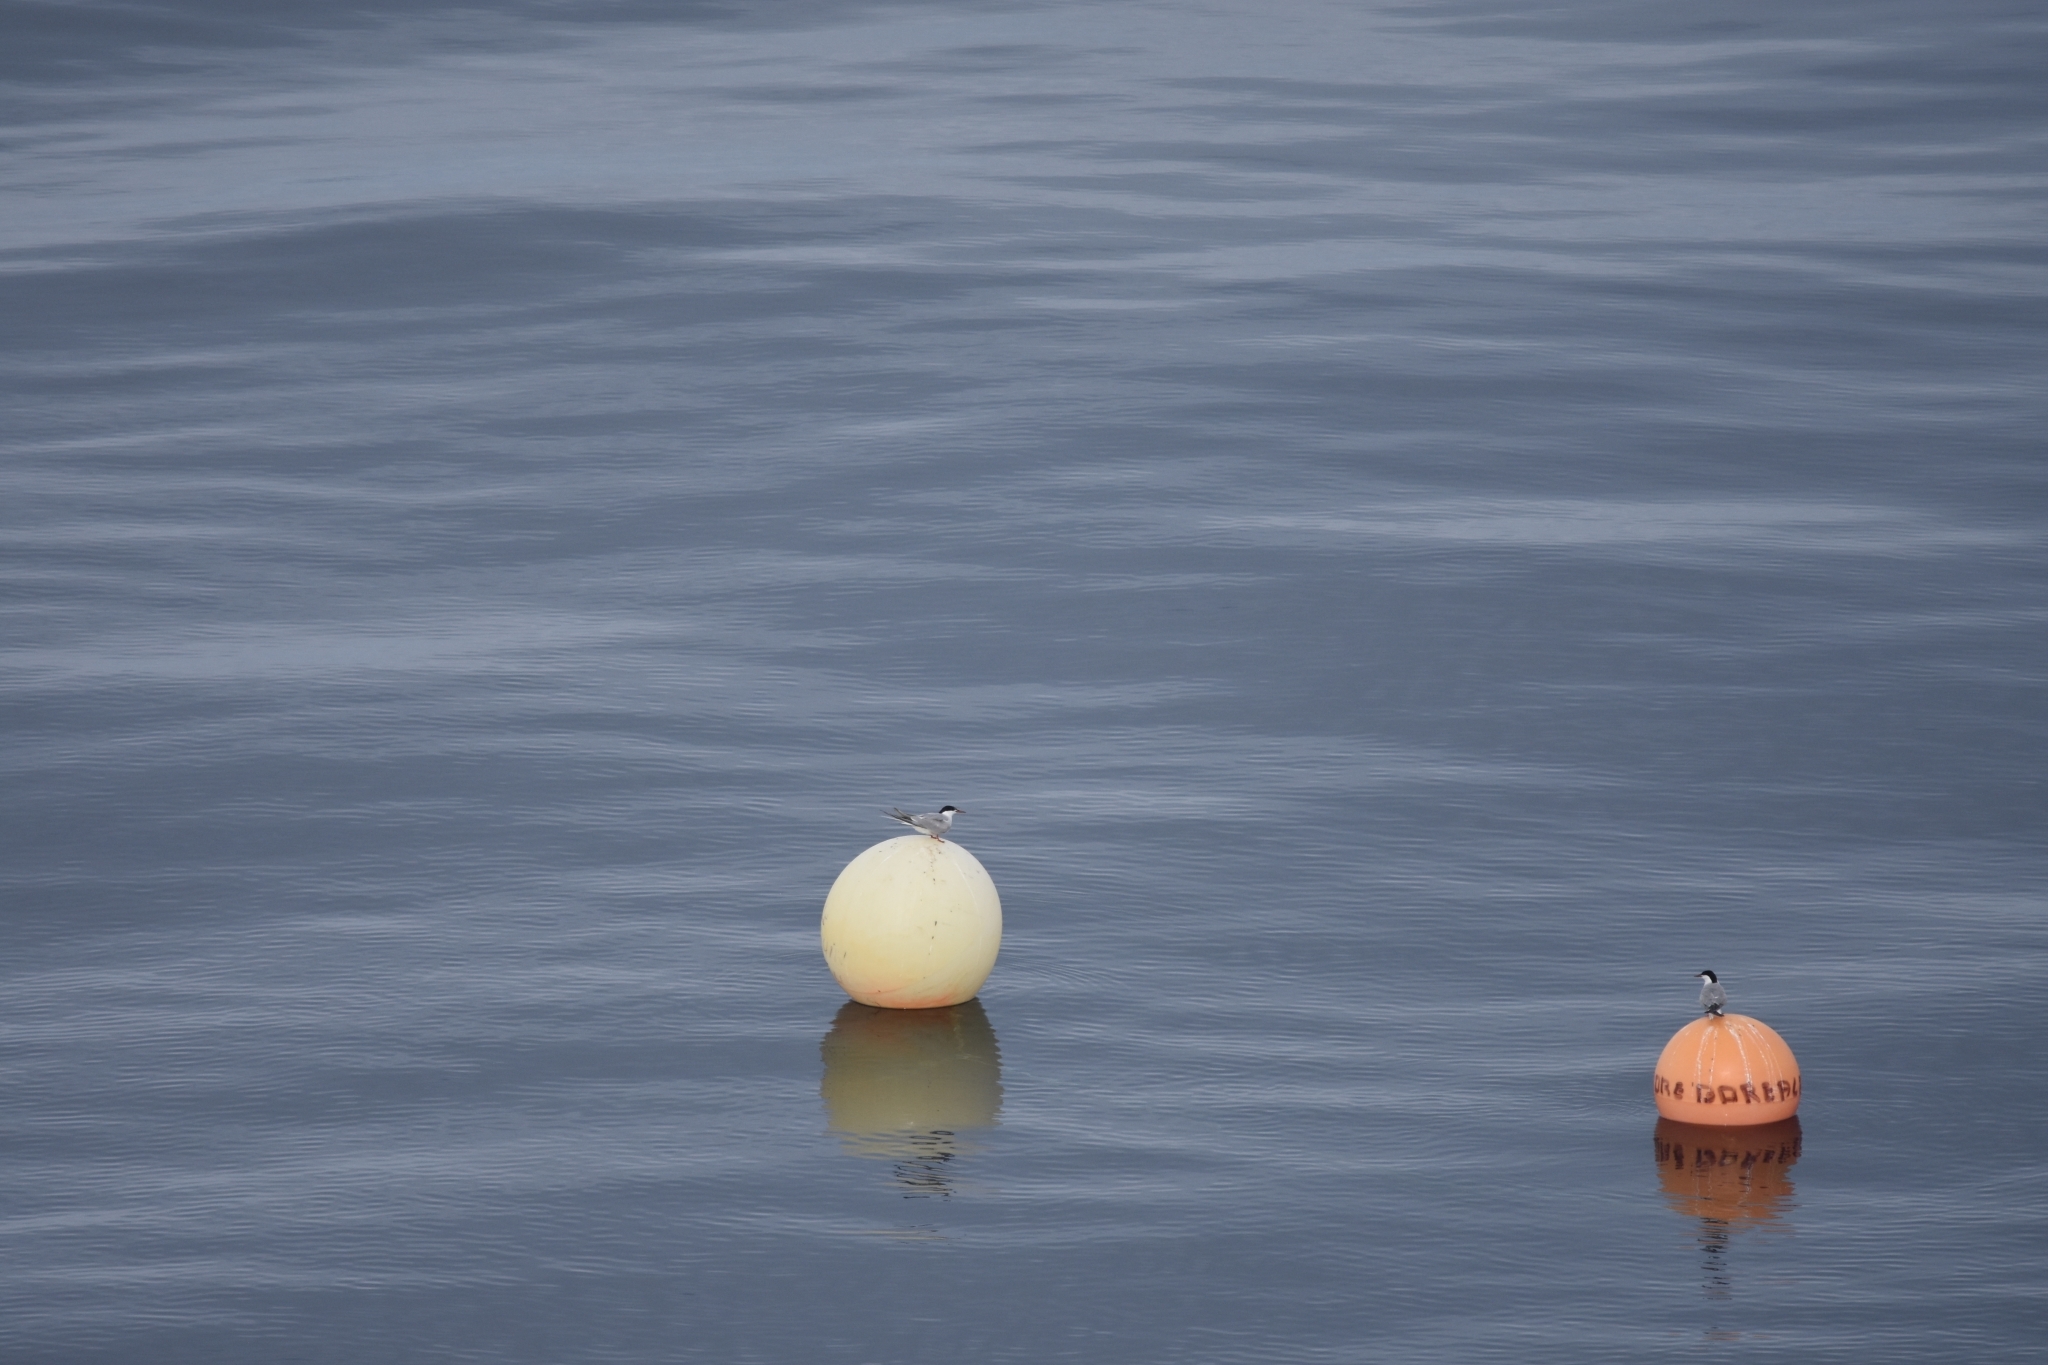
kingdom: Animalia
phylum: Chordata
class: Aves
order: Charadriiformes
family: Laridae
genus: Sterna
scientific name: Sterna hirundo
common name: Common tern
